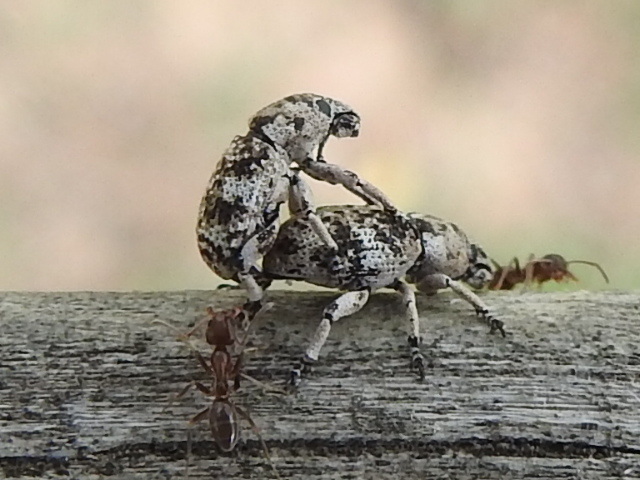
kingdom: Animalia
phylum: Arthropoda
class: Insecta
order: Coleoptera
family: Curculionidae
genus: Colecerus
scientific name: Colecerus marmoratus
